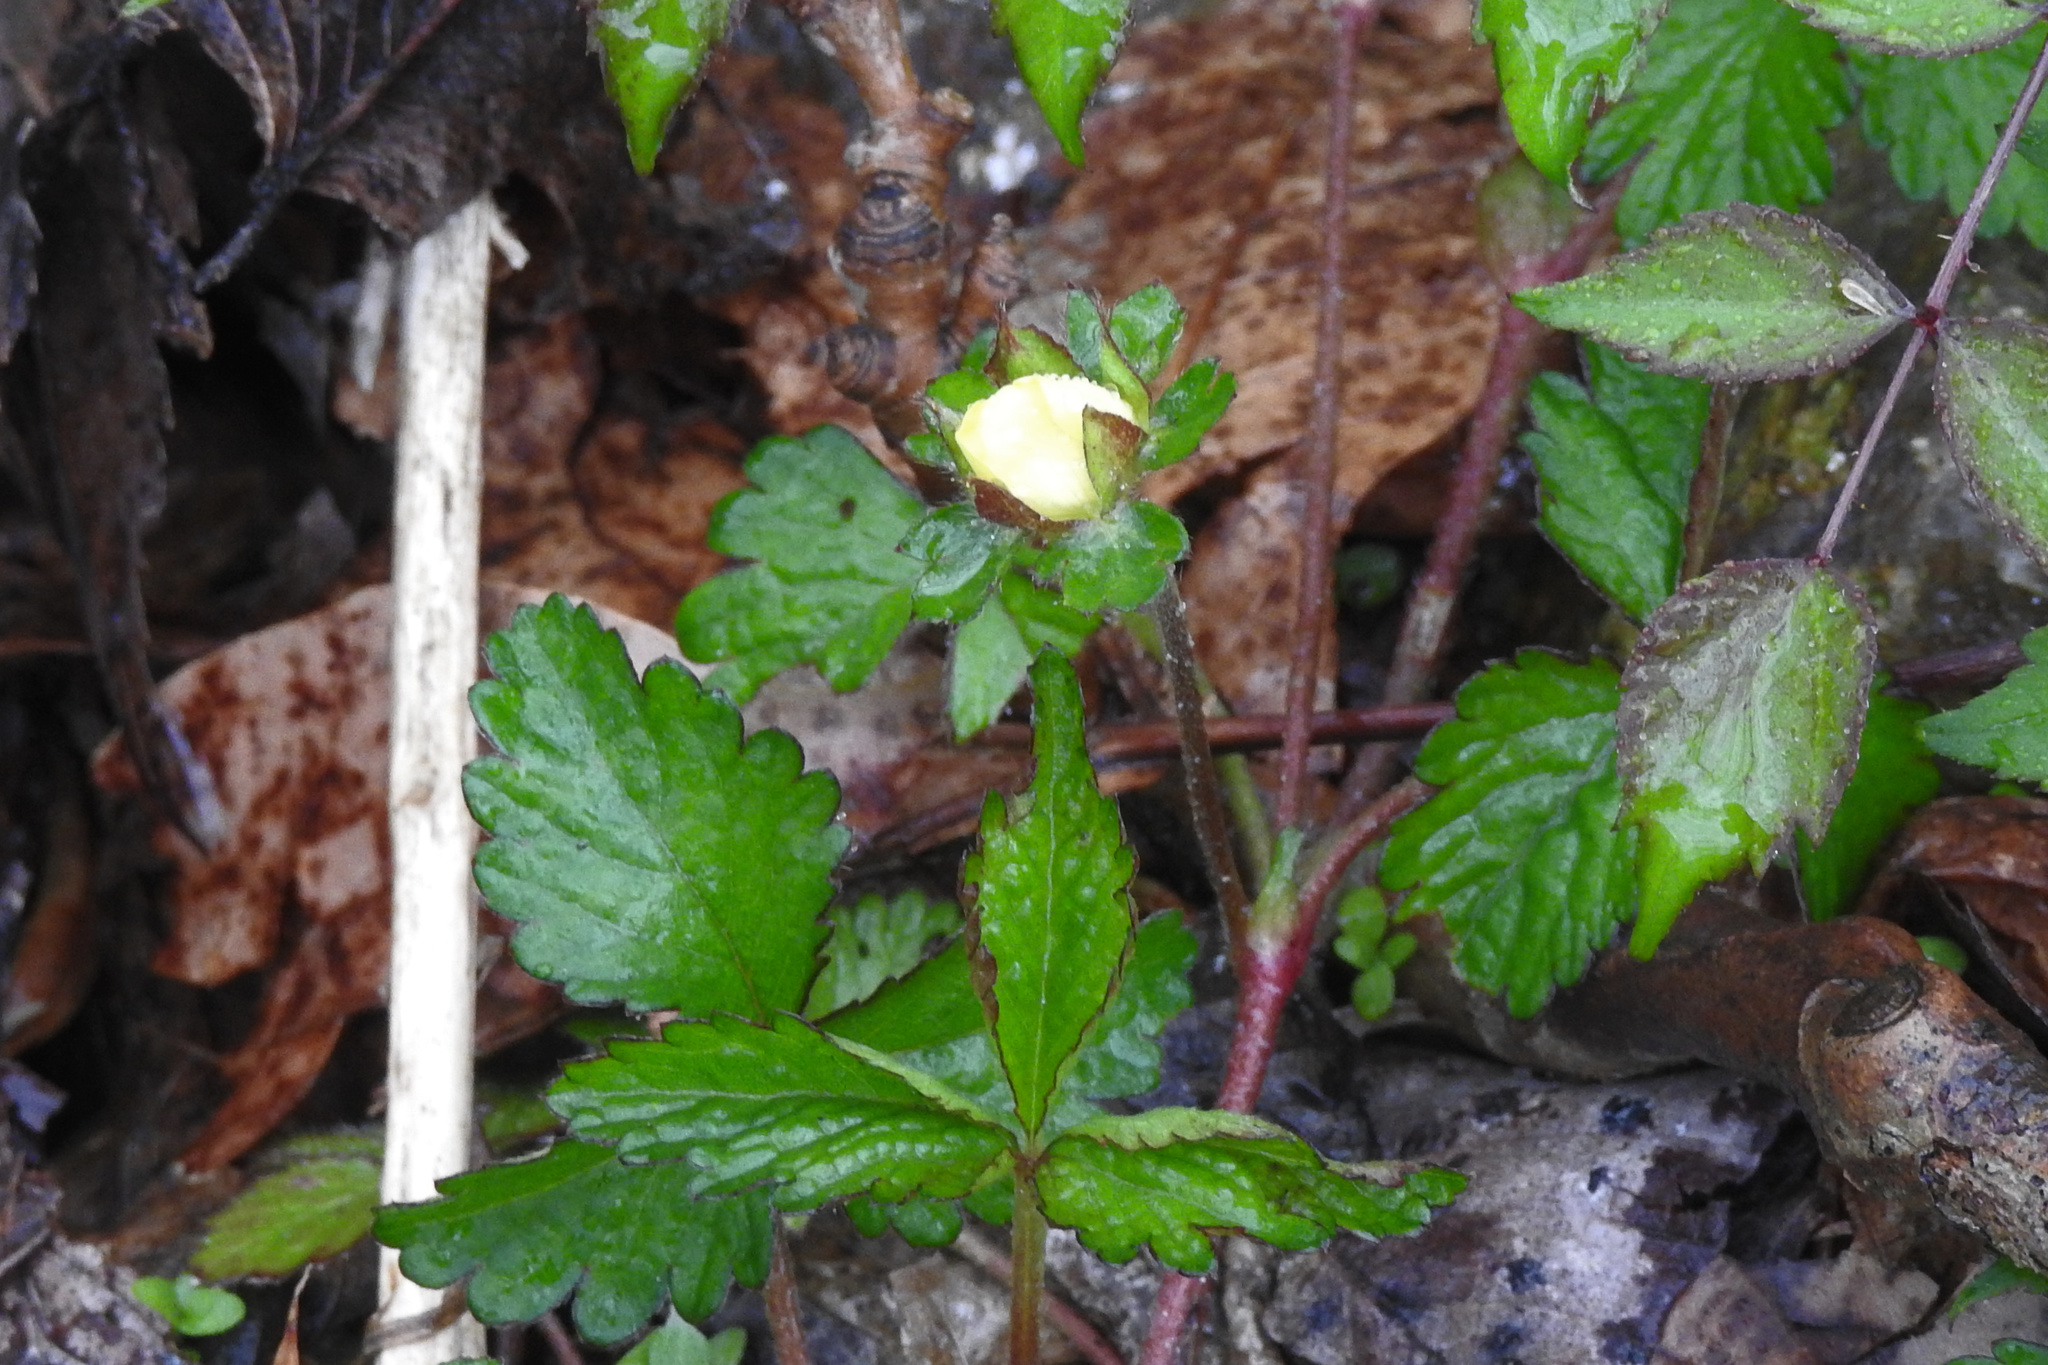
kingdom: Plantae
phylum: Tracheophyta
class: Magnoliopsida
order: Rosales
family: Rosaceae
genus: Potentilla
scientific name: Potentilla indica
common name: Yellow-flowered strawberry
